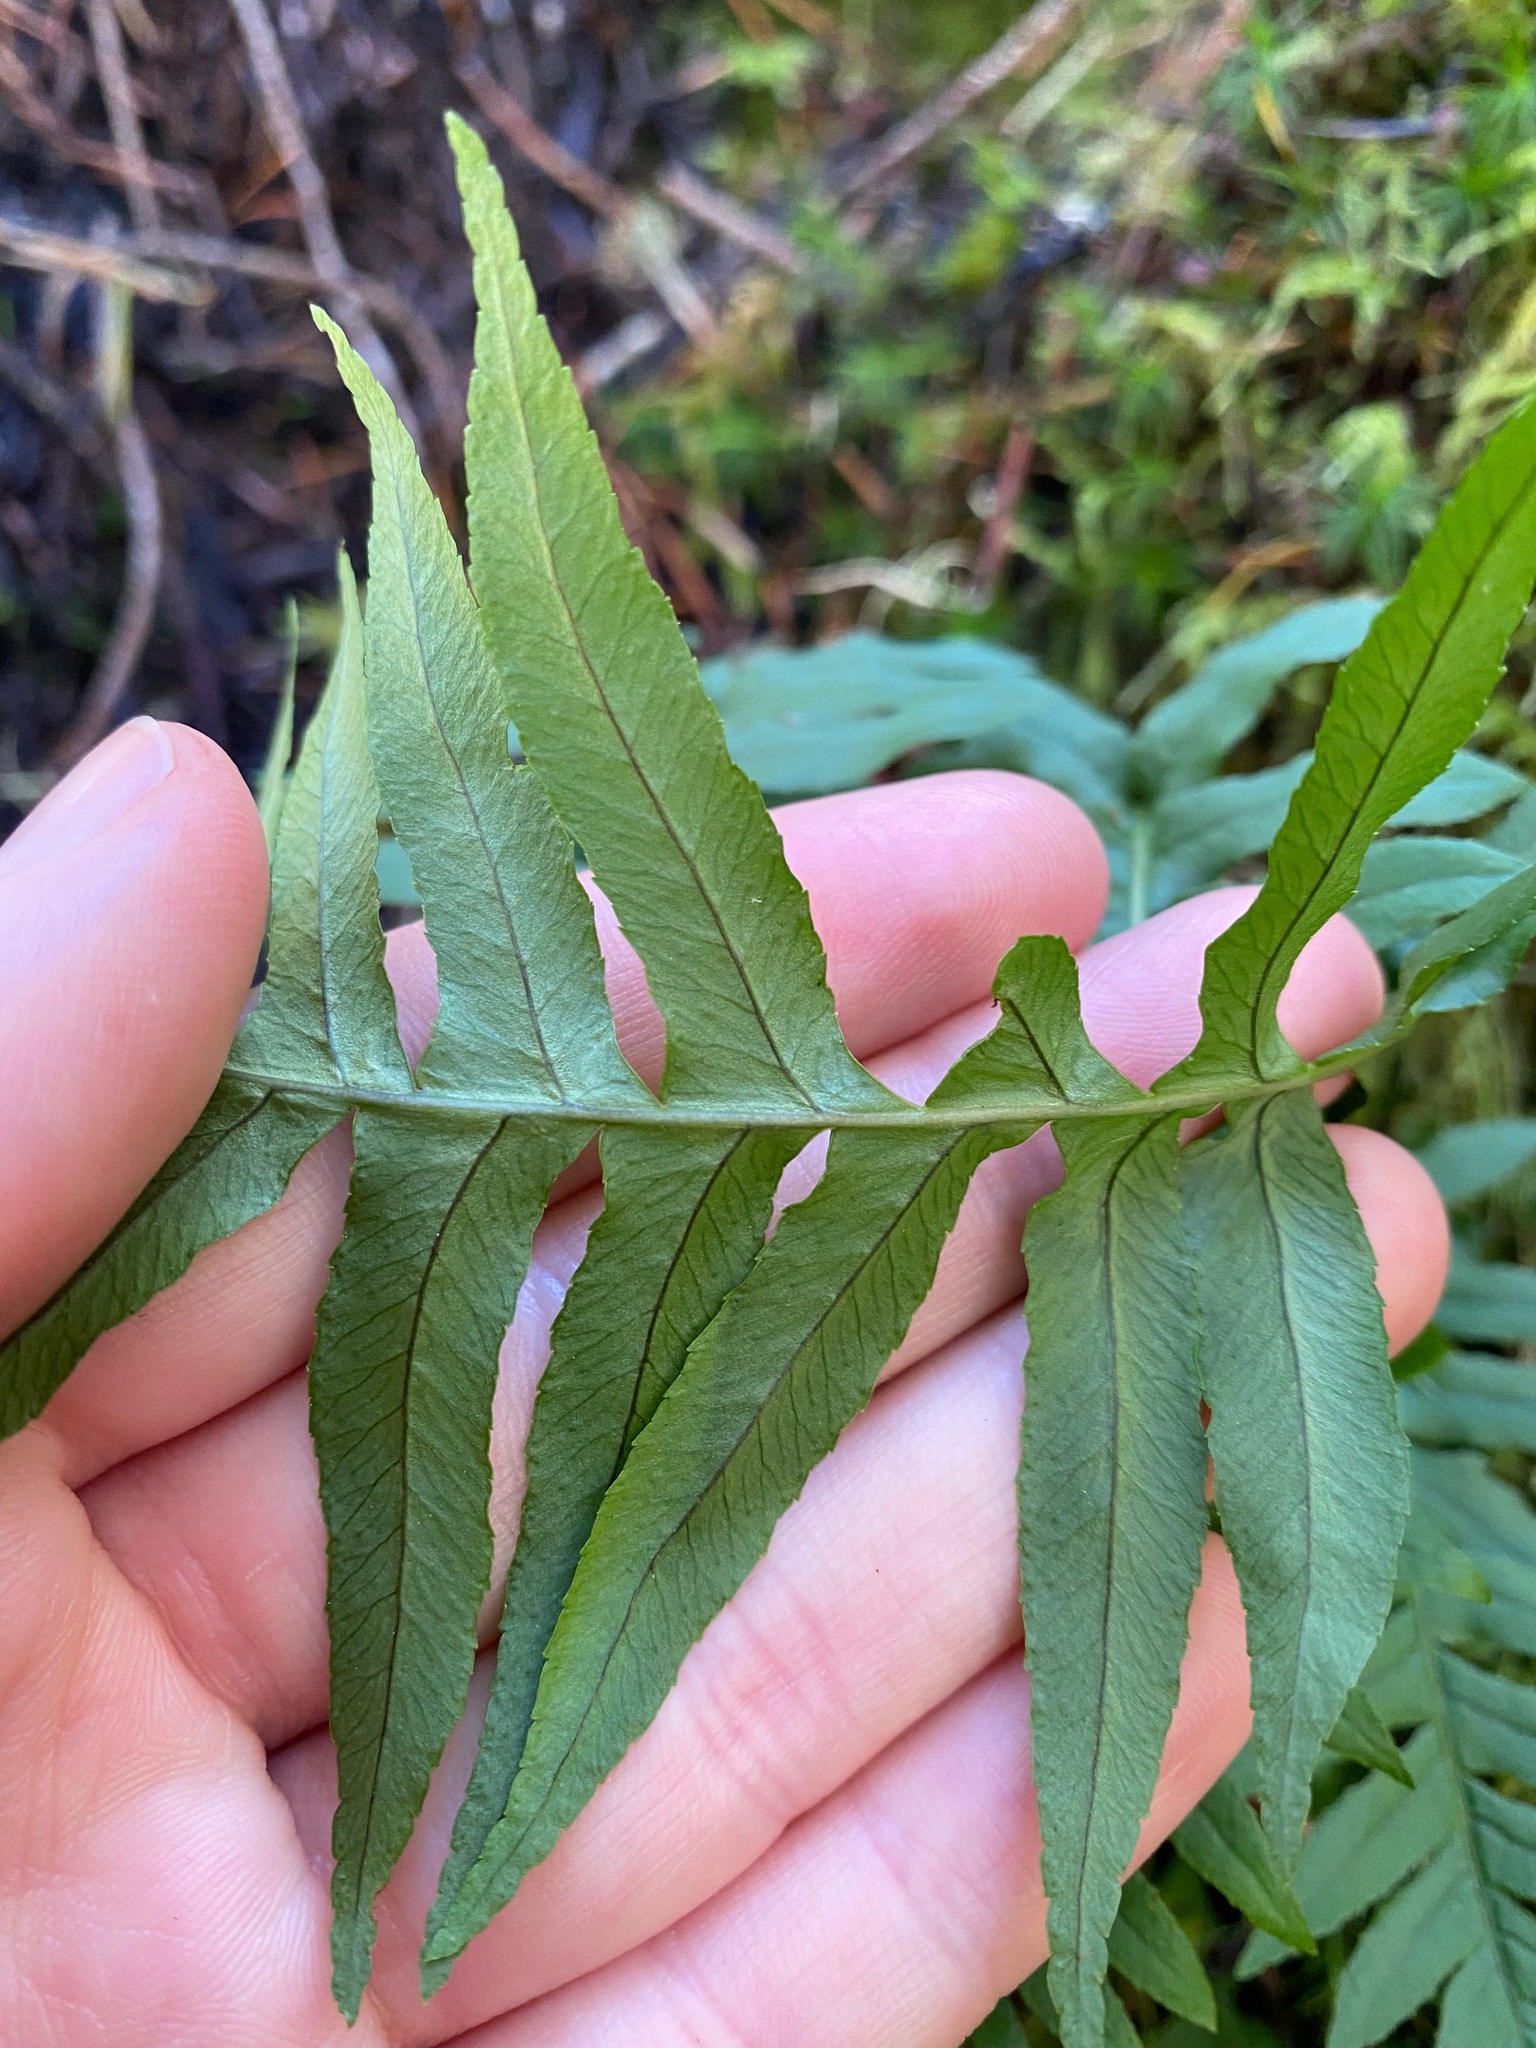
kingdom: Plantae
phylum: Tracheophyta
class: Polypodiopsida
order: Polypodiales
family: Polypodiaceae
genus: Polypodium
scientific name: Polypodium glycyrrhiza
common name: Licorice fern
